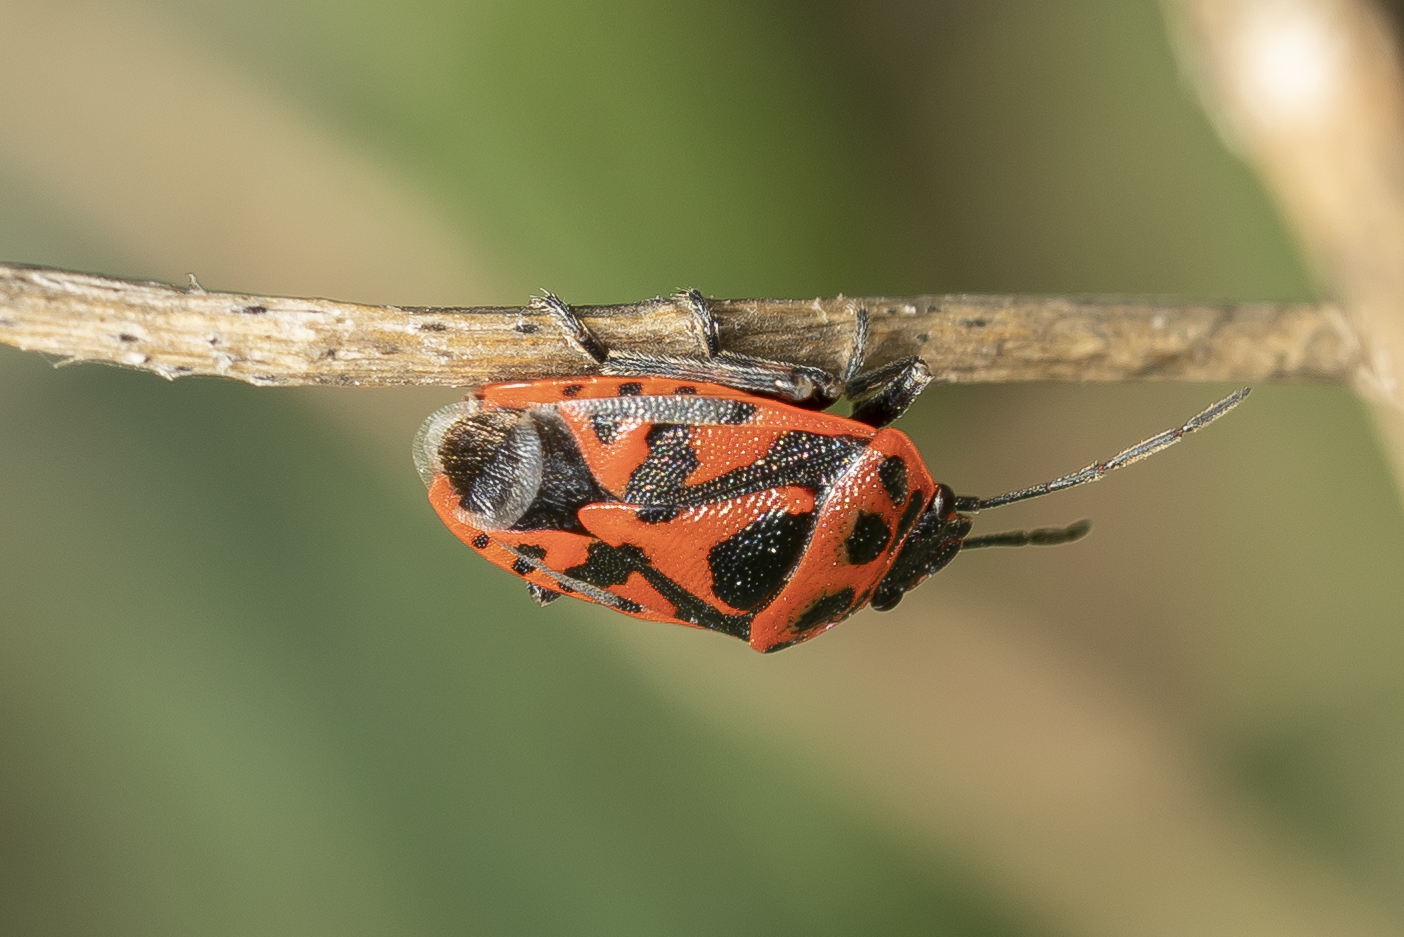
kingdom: Animalia
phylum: Arthropoda
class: Insecta
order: Hemiptera
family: Pentatomidae
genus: Eurydema
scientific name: Eurydema ornata
